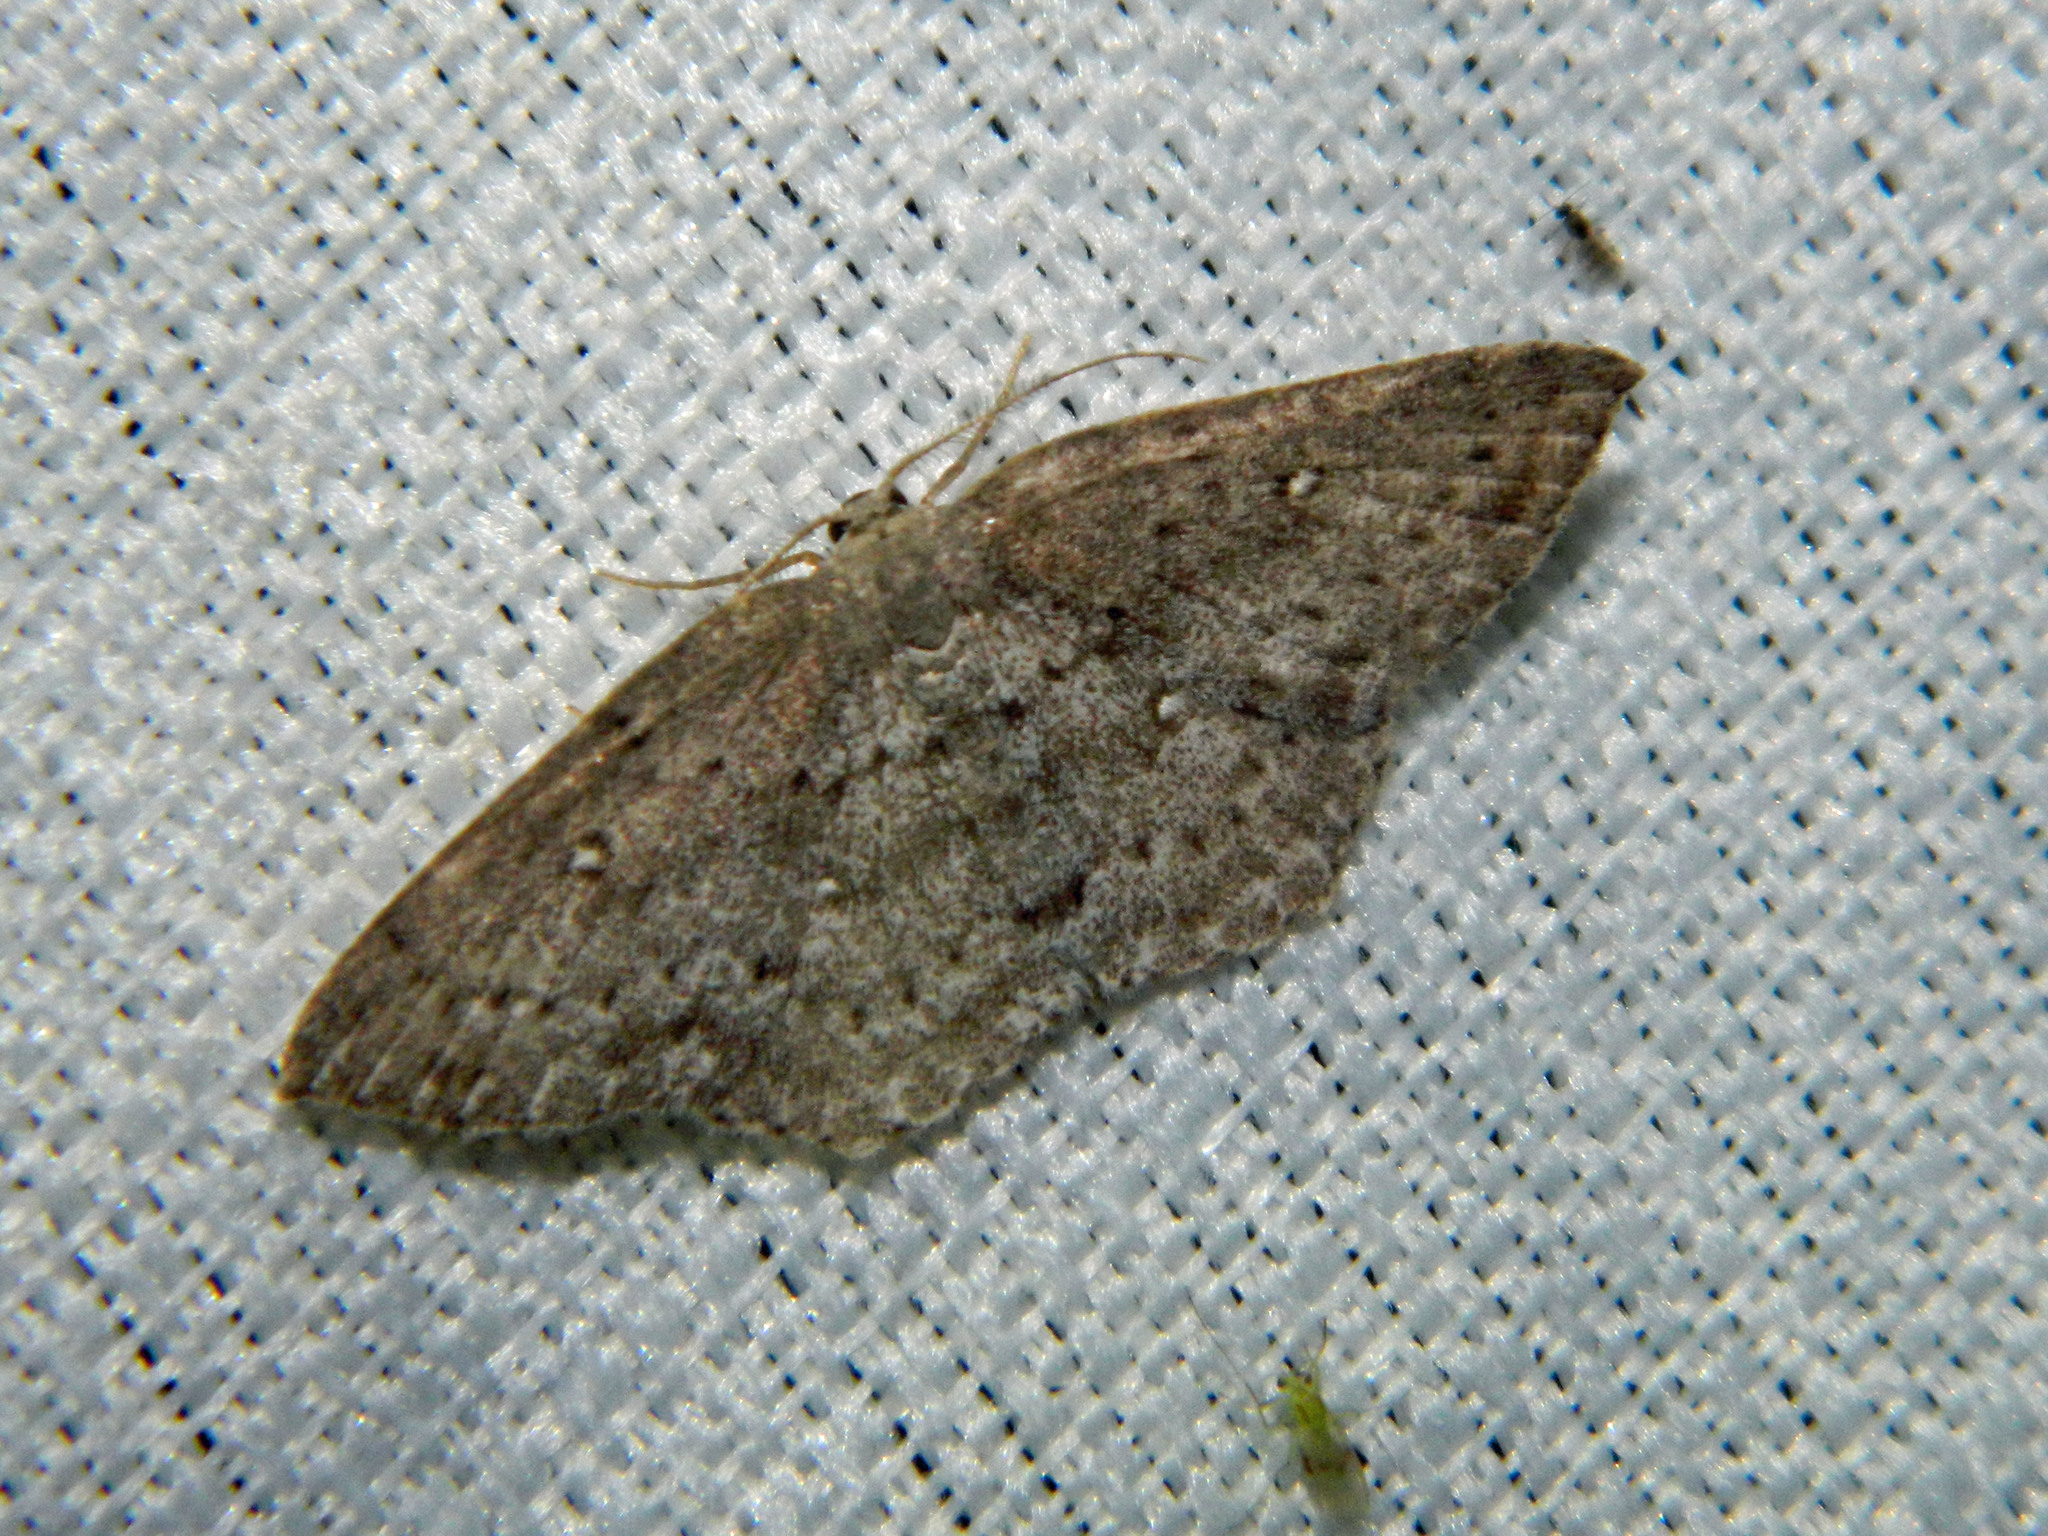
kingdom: Animalia
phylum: Arthropoda
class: Insecta
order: Lepidoptera
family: Geometridae
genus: Cyclophora
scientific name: Cyclophora pendulinaria
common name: Sweet fern geometer
